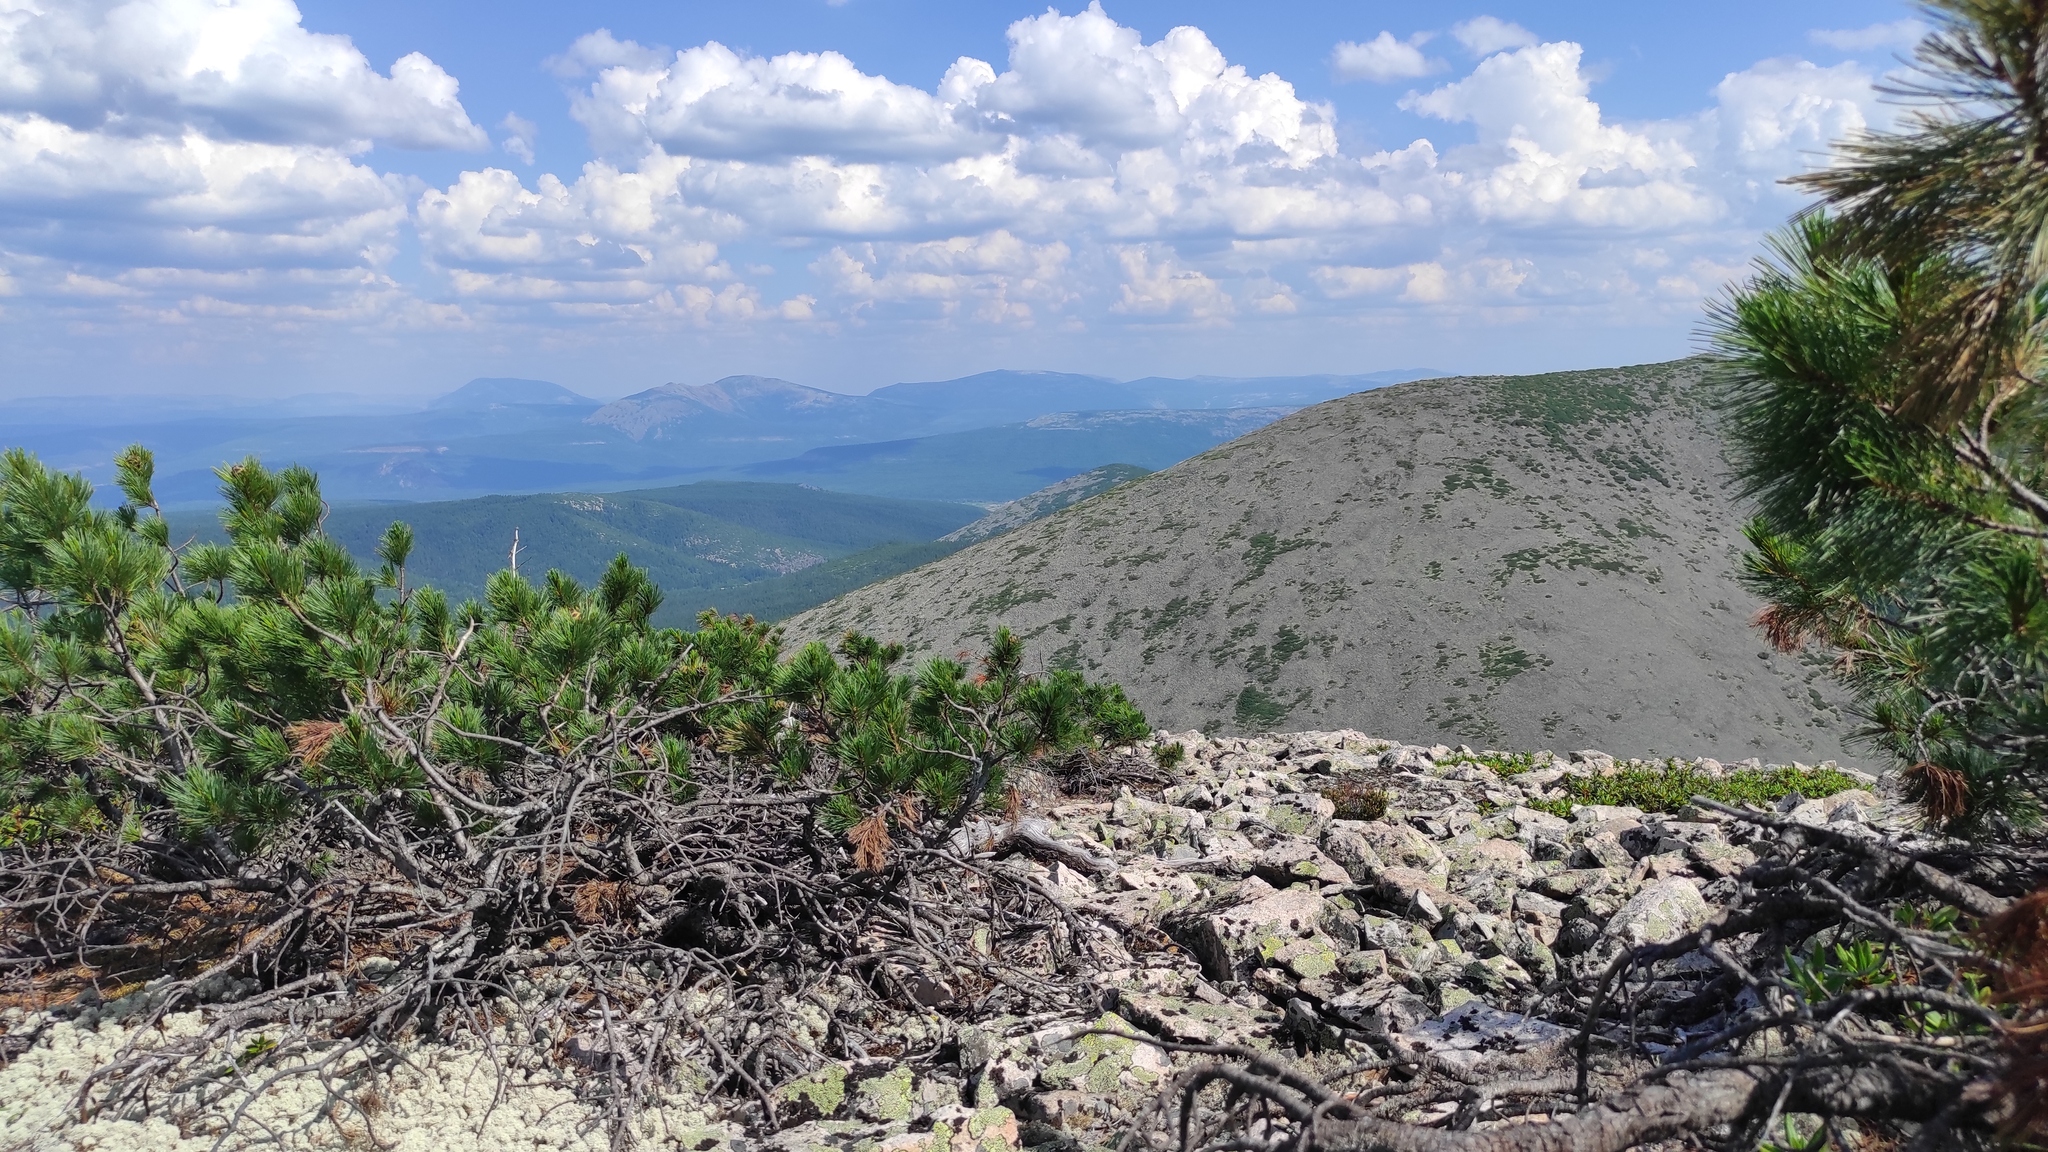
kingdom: Plantae
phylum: Tracheophyta
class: Pinopsida
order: Pinales
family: Pinaceae
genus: Pinus
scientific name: Pinus pumila
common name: Dwarf siberian pine
